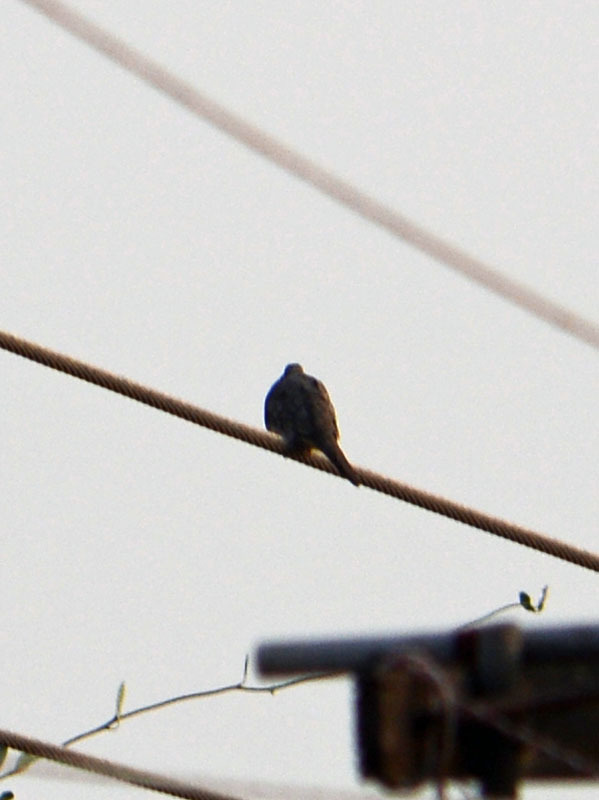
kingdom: Animalia
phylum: Chordata
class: Aves
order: Columbiformes
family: Columbidae
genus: Columbina
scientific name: Columbina inca
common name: Inca dove
